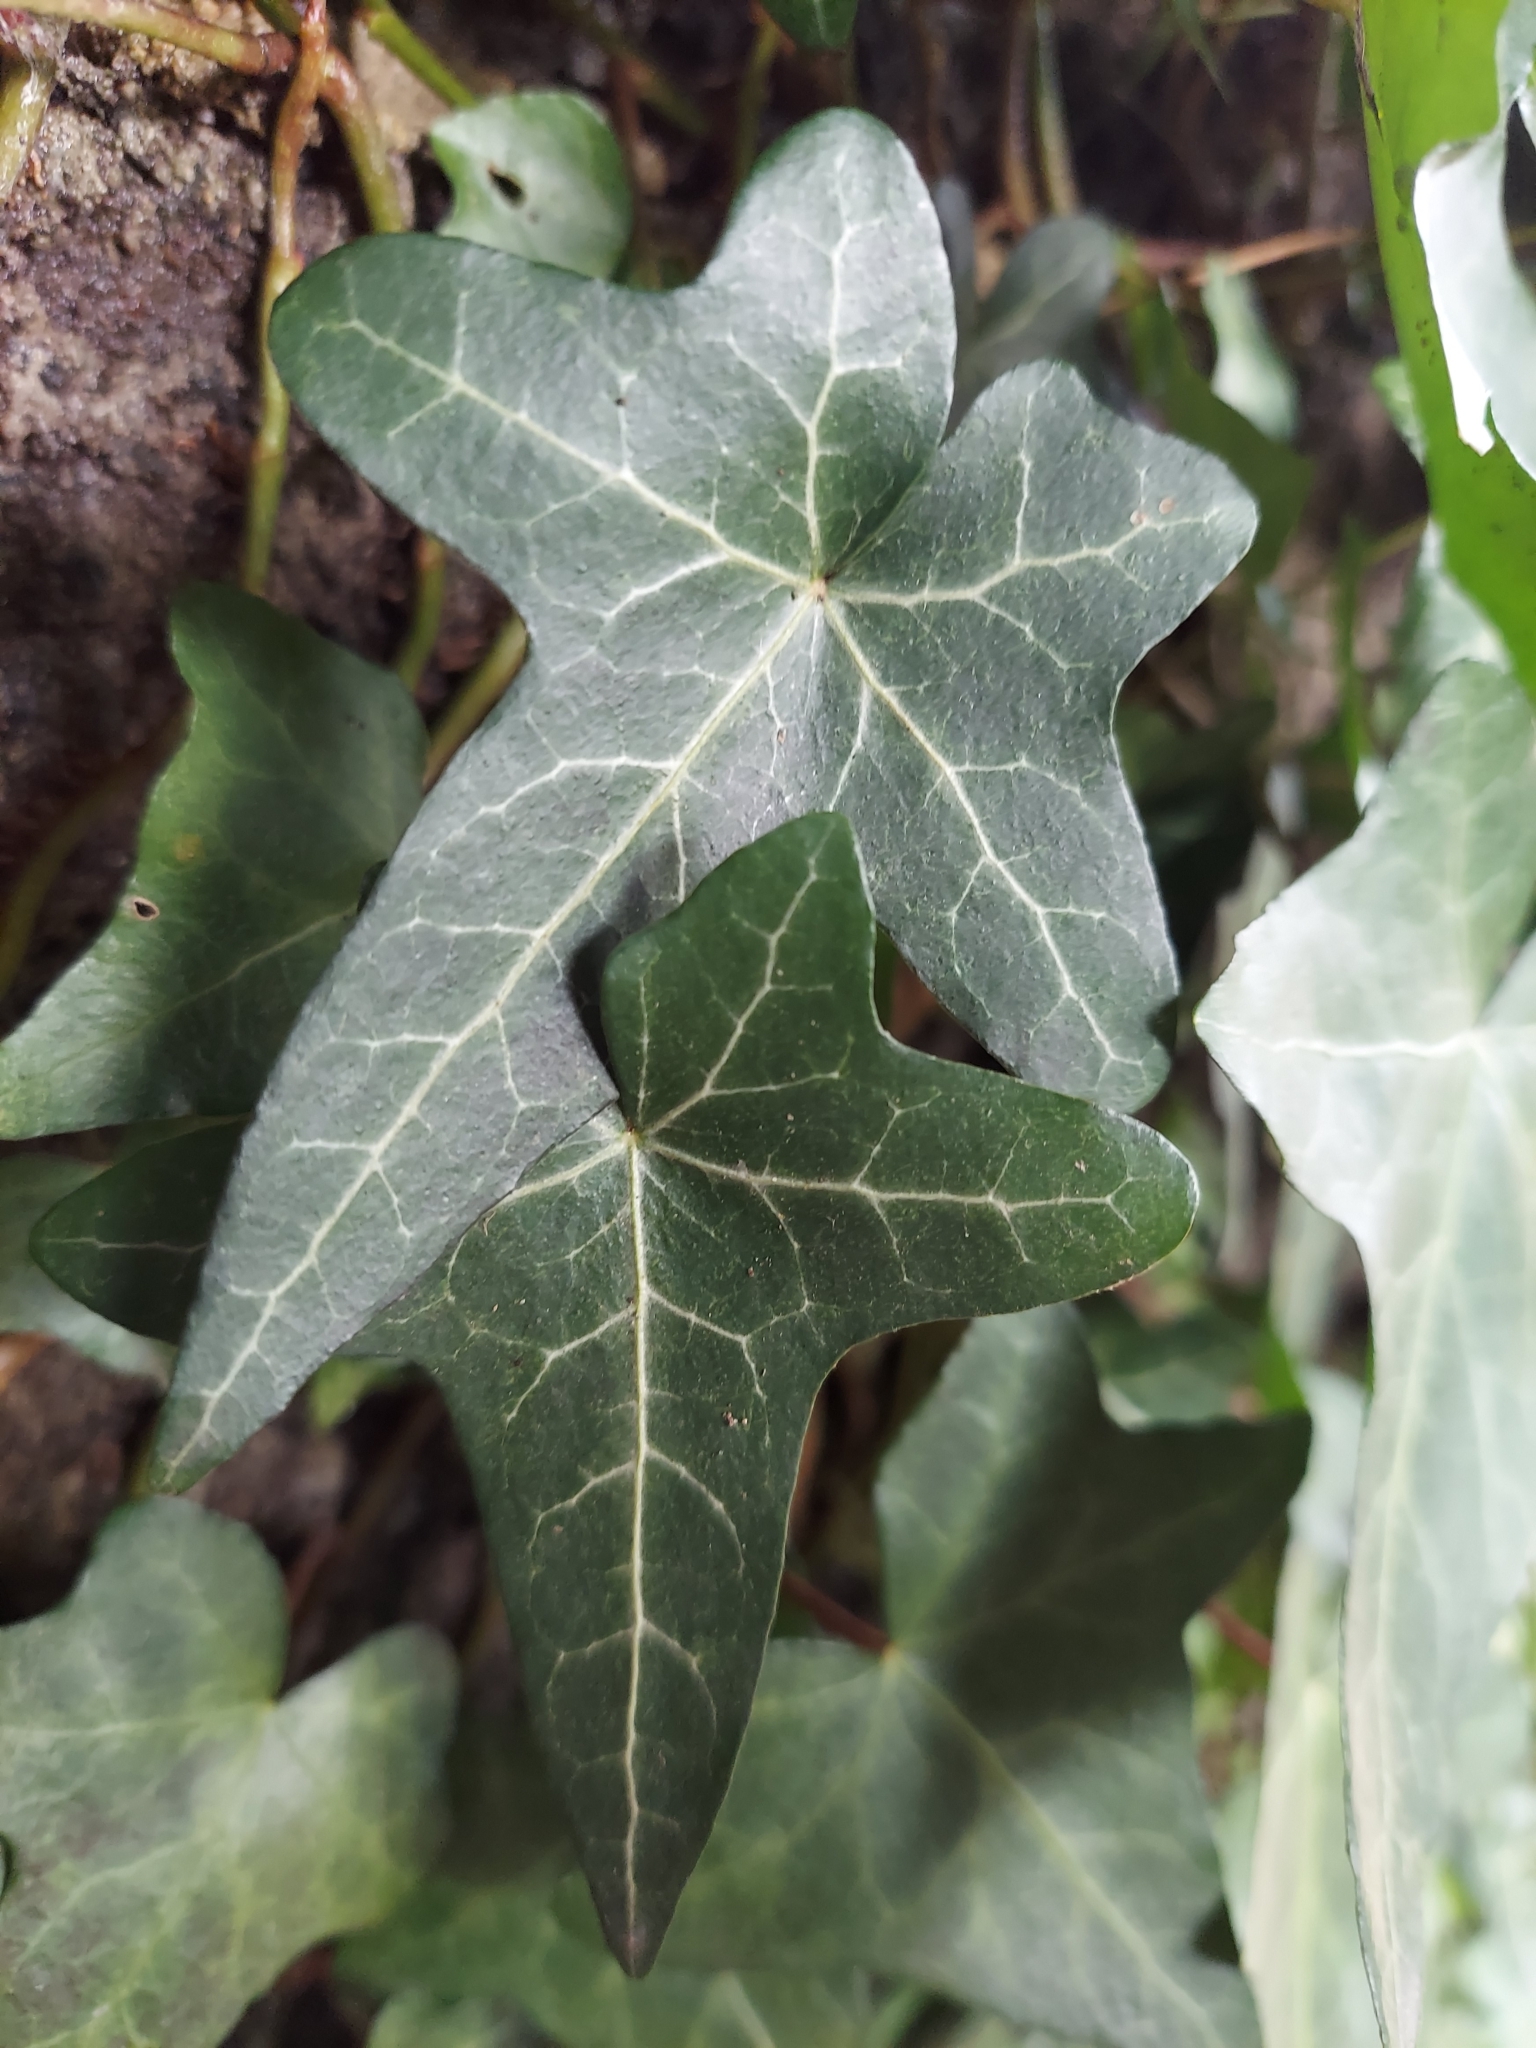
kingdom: Plantae
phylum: Tracheophyta
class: Magnoliopsida
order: Apiales
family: Araliaceae
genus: Hedera
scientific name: Hedera helix
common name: Ivy
